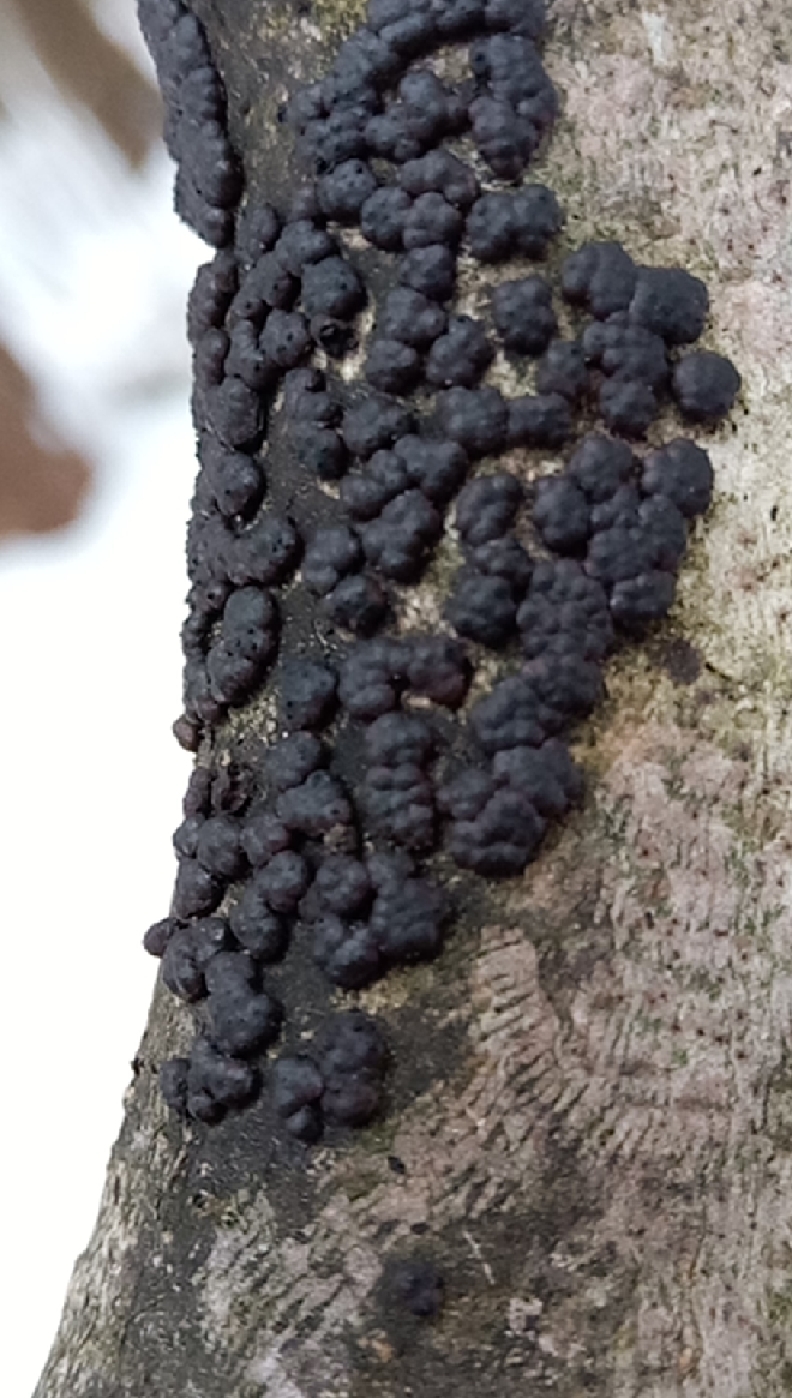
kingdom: Fungi
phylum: Ascomycota
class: Sordariomycetes
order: Xylariales
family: Hypoxylaceae
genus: Jackrogersella
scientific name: Jackrogersella cohaerens
